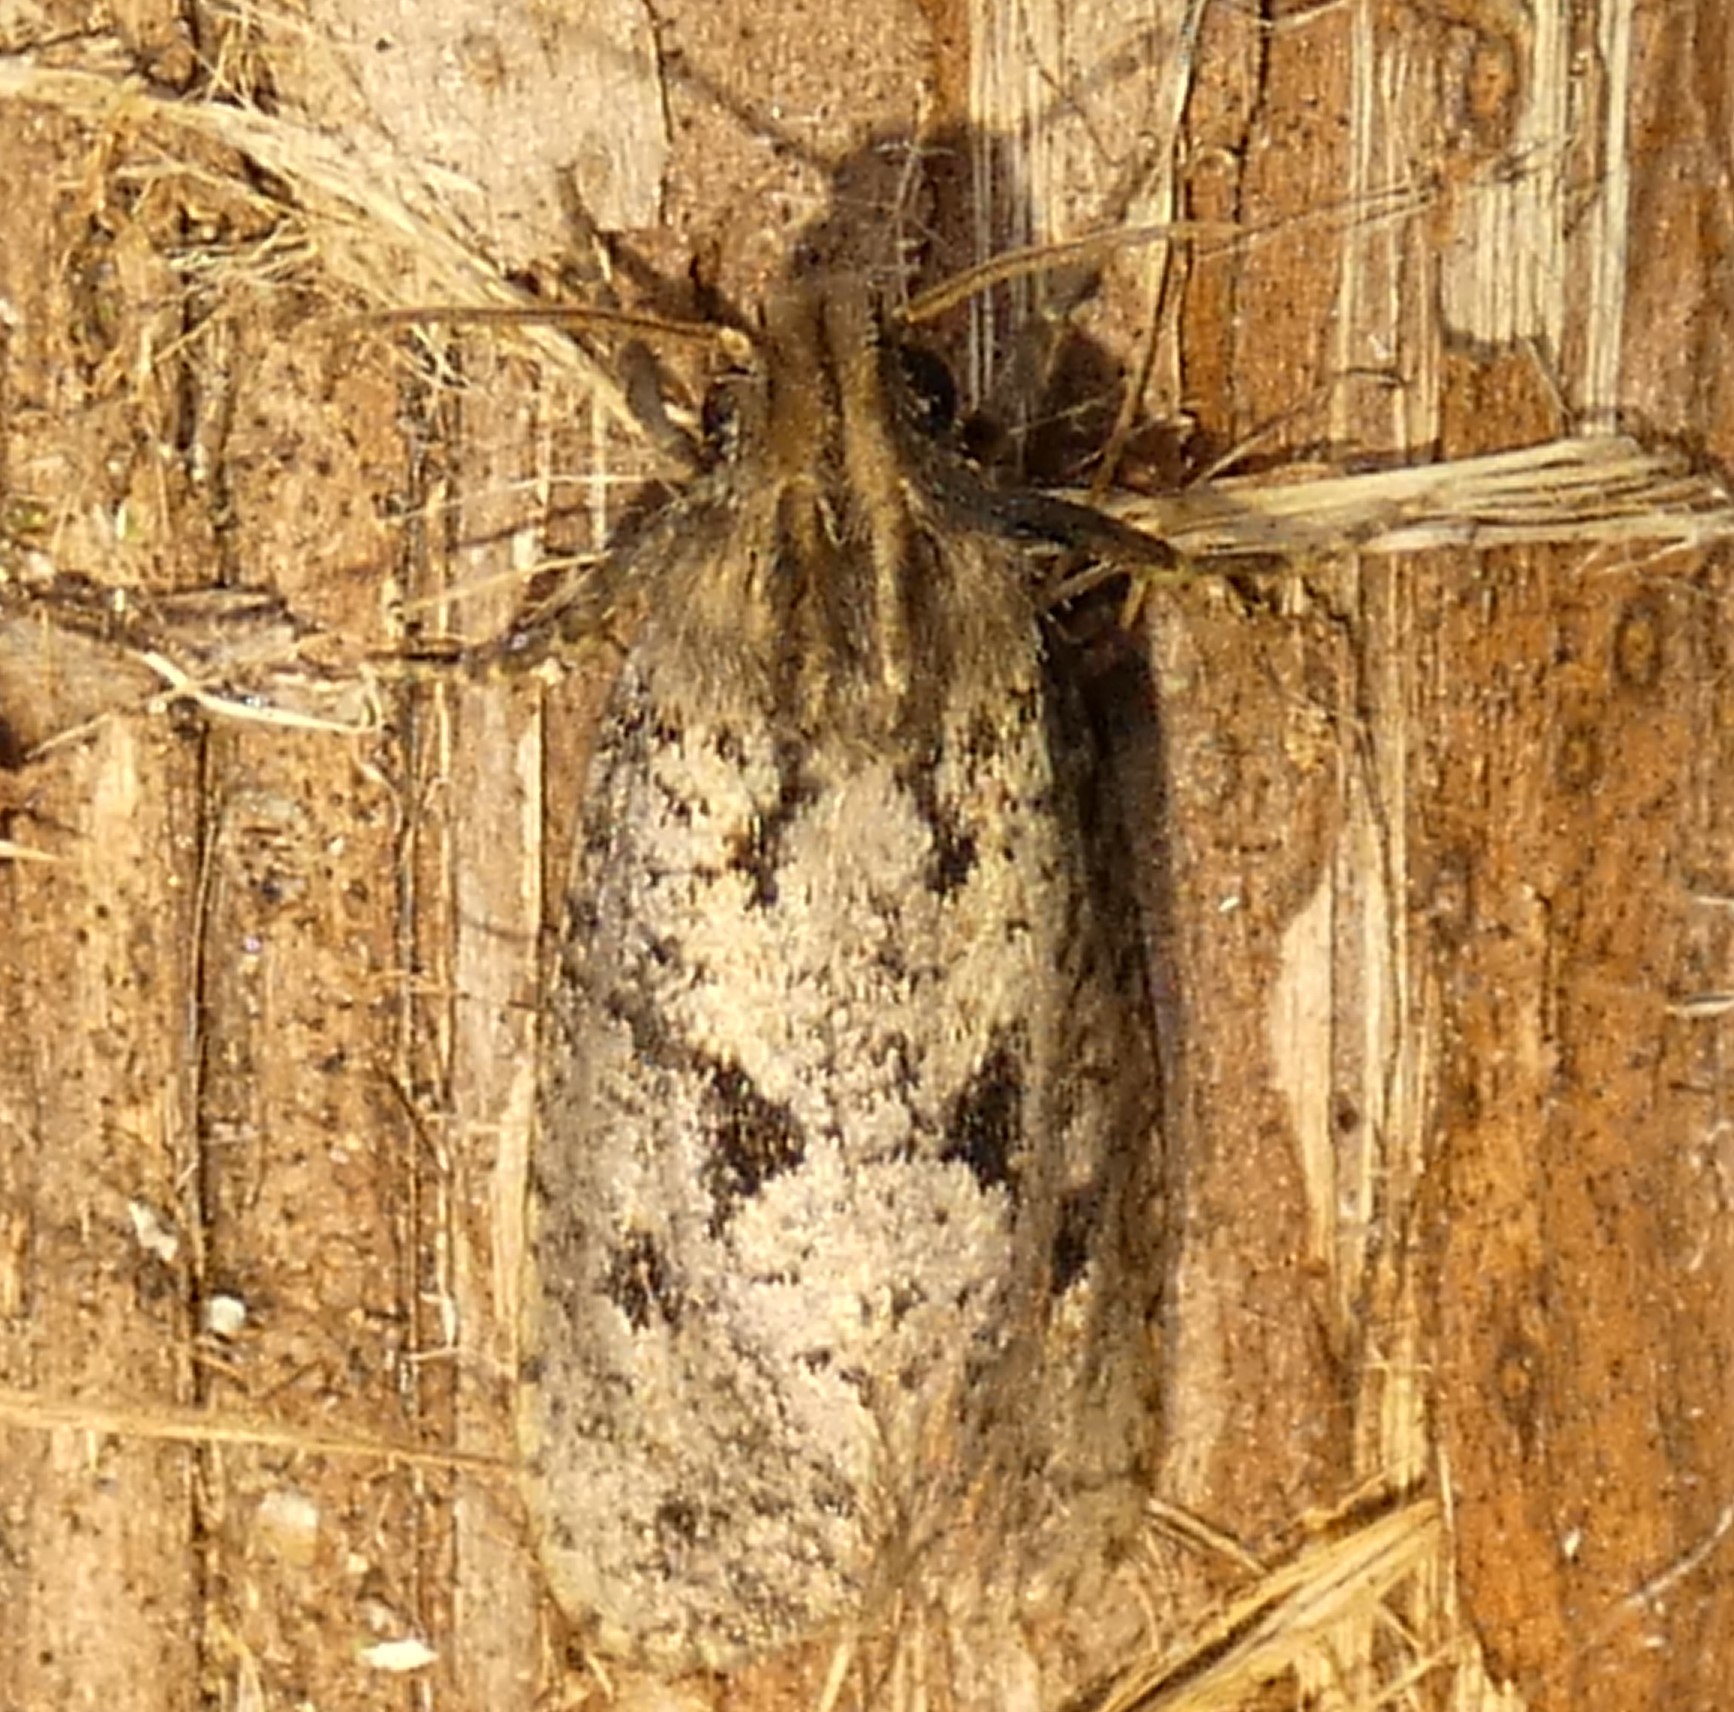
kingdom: Animalia
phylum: Arthropoda
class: Insecta
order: Lepidoptera
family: Tineidae
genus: Acrolophus
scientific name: Acrolophus popeanella
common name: Clemens' grass tubeworm moth
